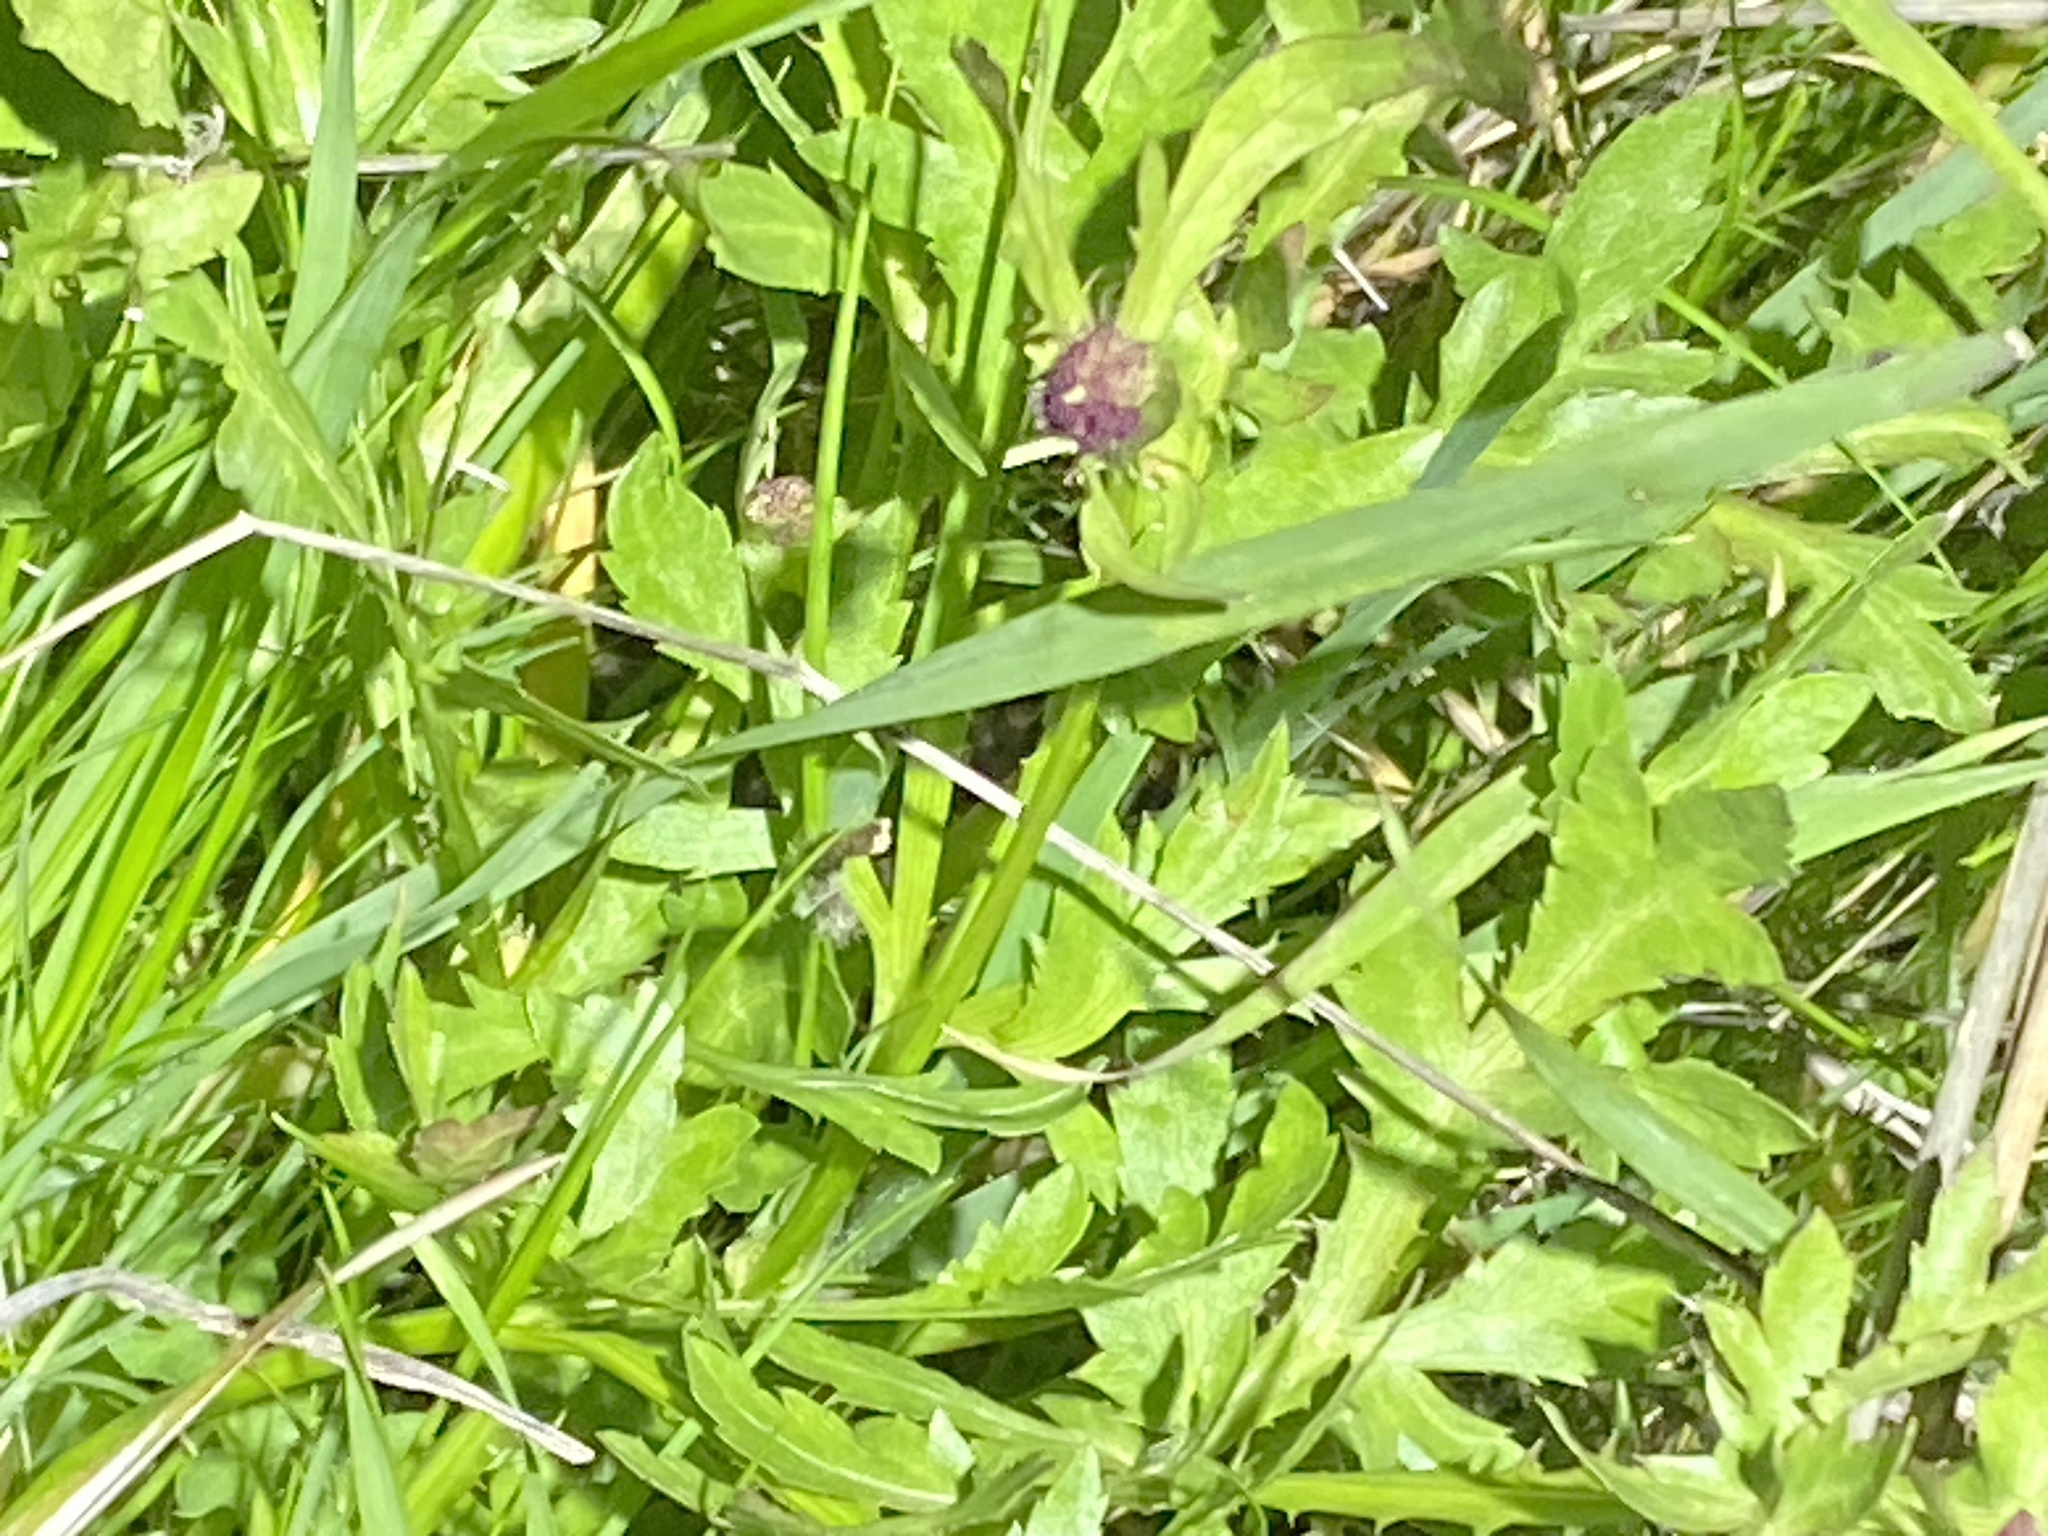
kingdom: Plantae
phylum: Tracheophyta
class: Magnoliopsida
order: Apiales
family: Apiaceae
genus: Sanicula
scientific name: Sanicula bipinnatifida
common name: Shoe-buttons
